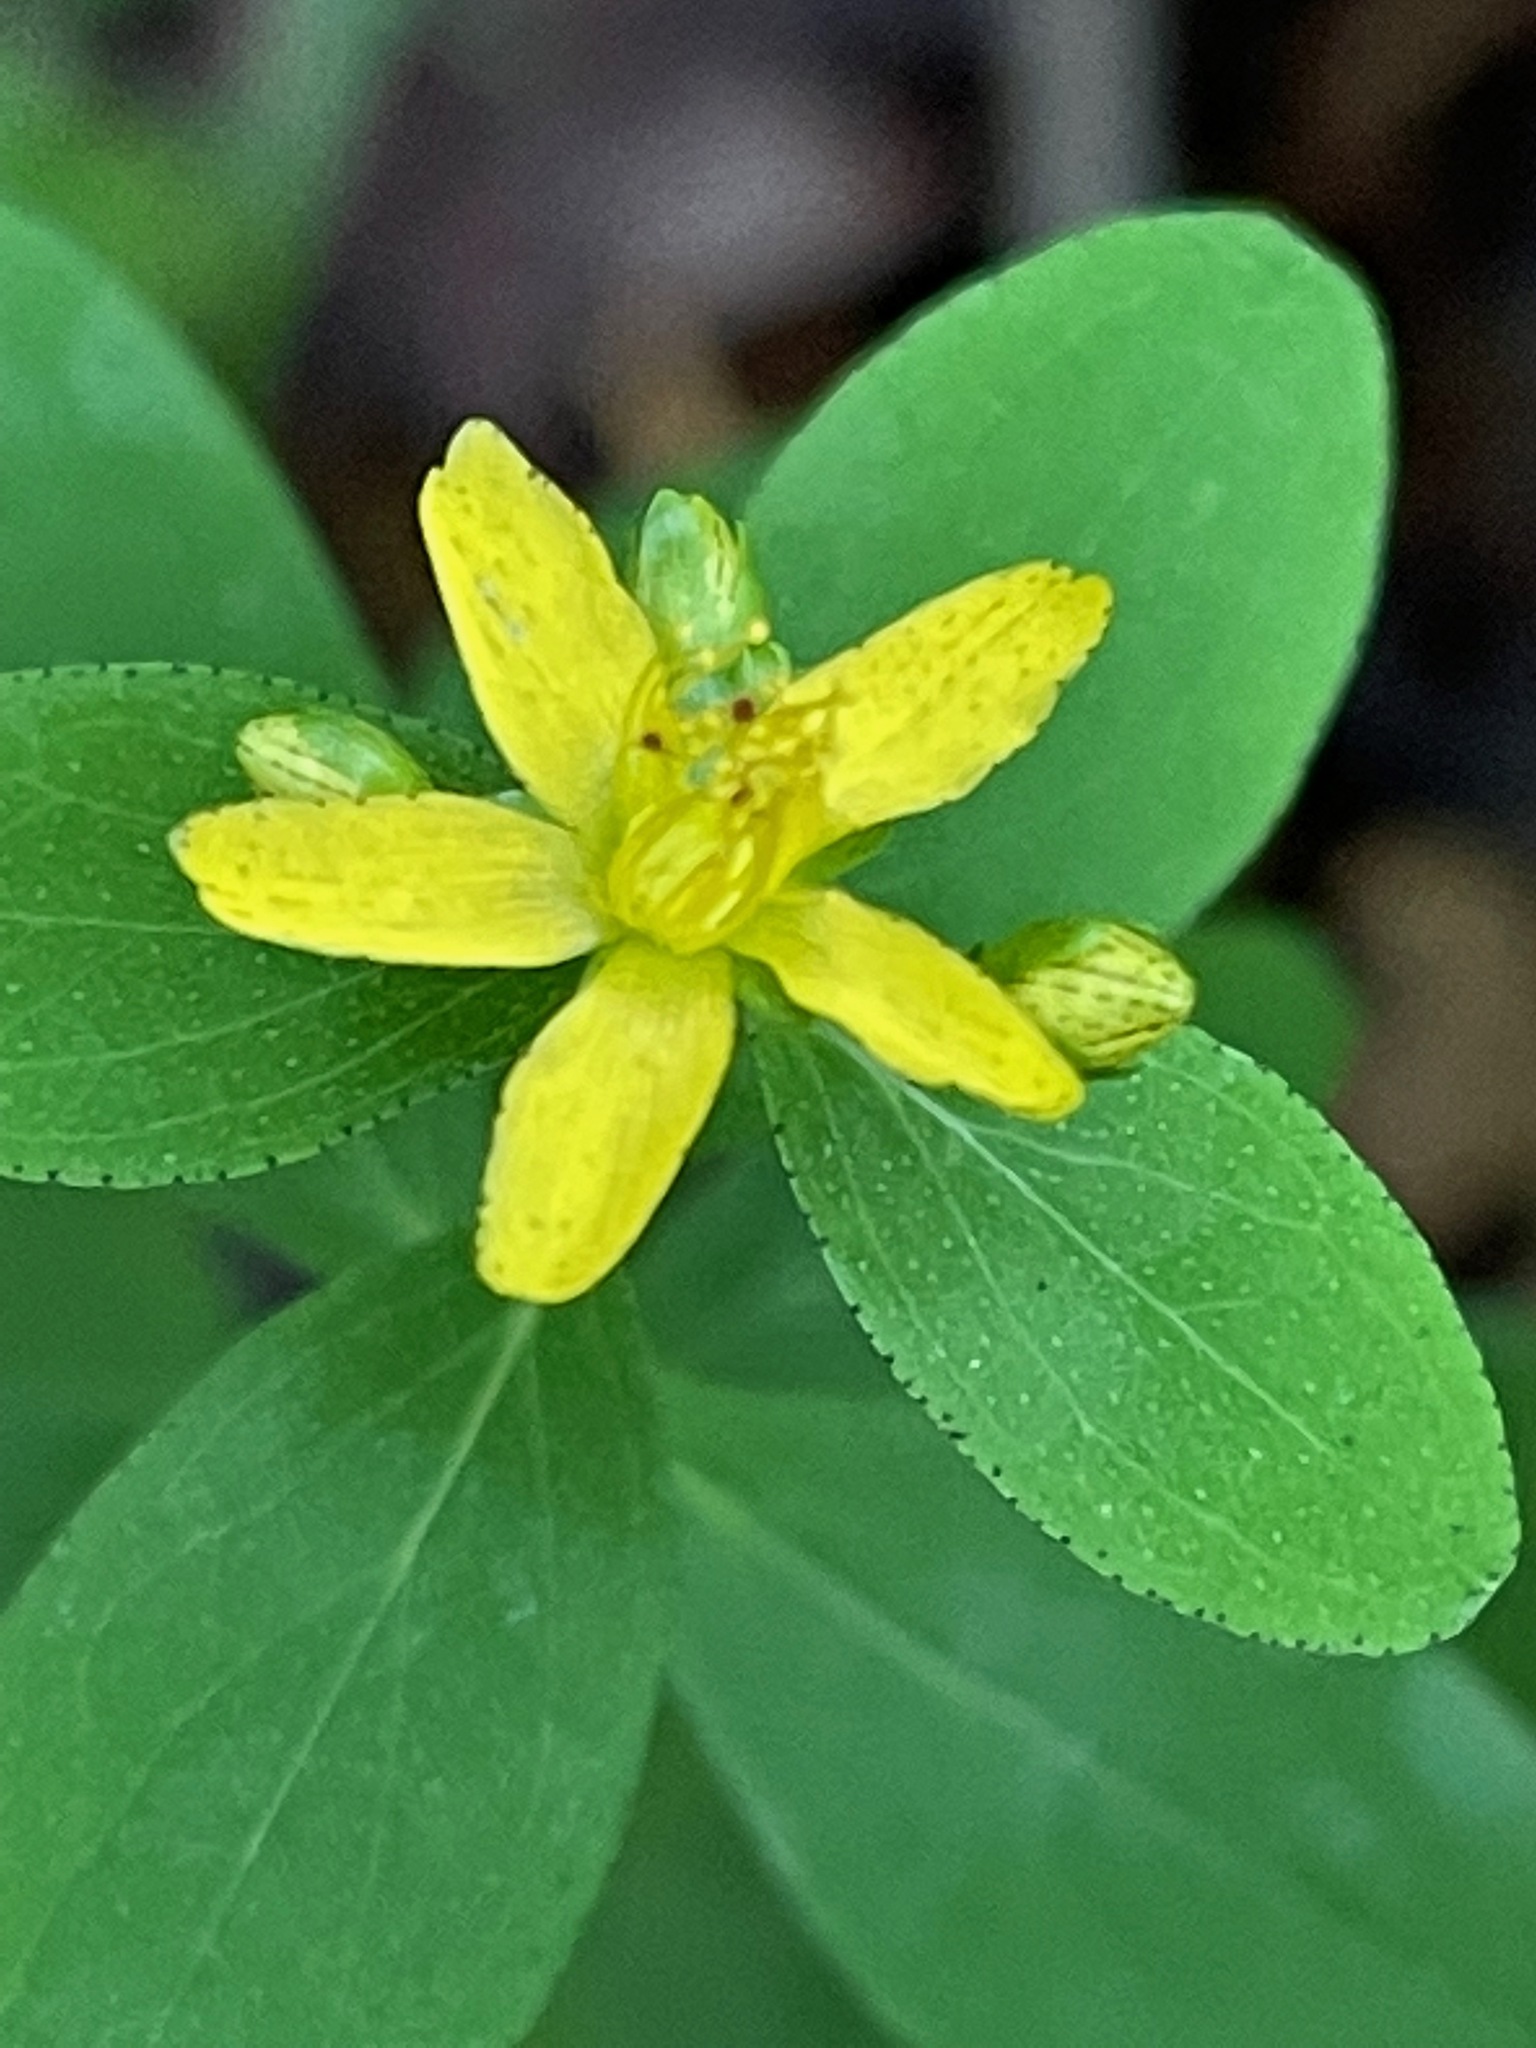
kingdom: Plantae
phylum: Tracheophyta
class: Magnoliopsida
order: Malpighiales
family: Hypericaceae
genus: Hypericum
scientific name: Hypericum punctatum
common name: Spotted st. john's-wort
